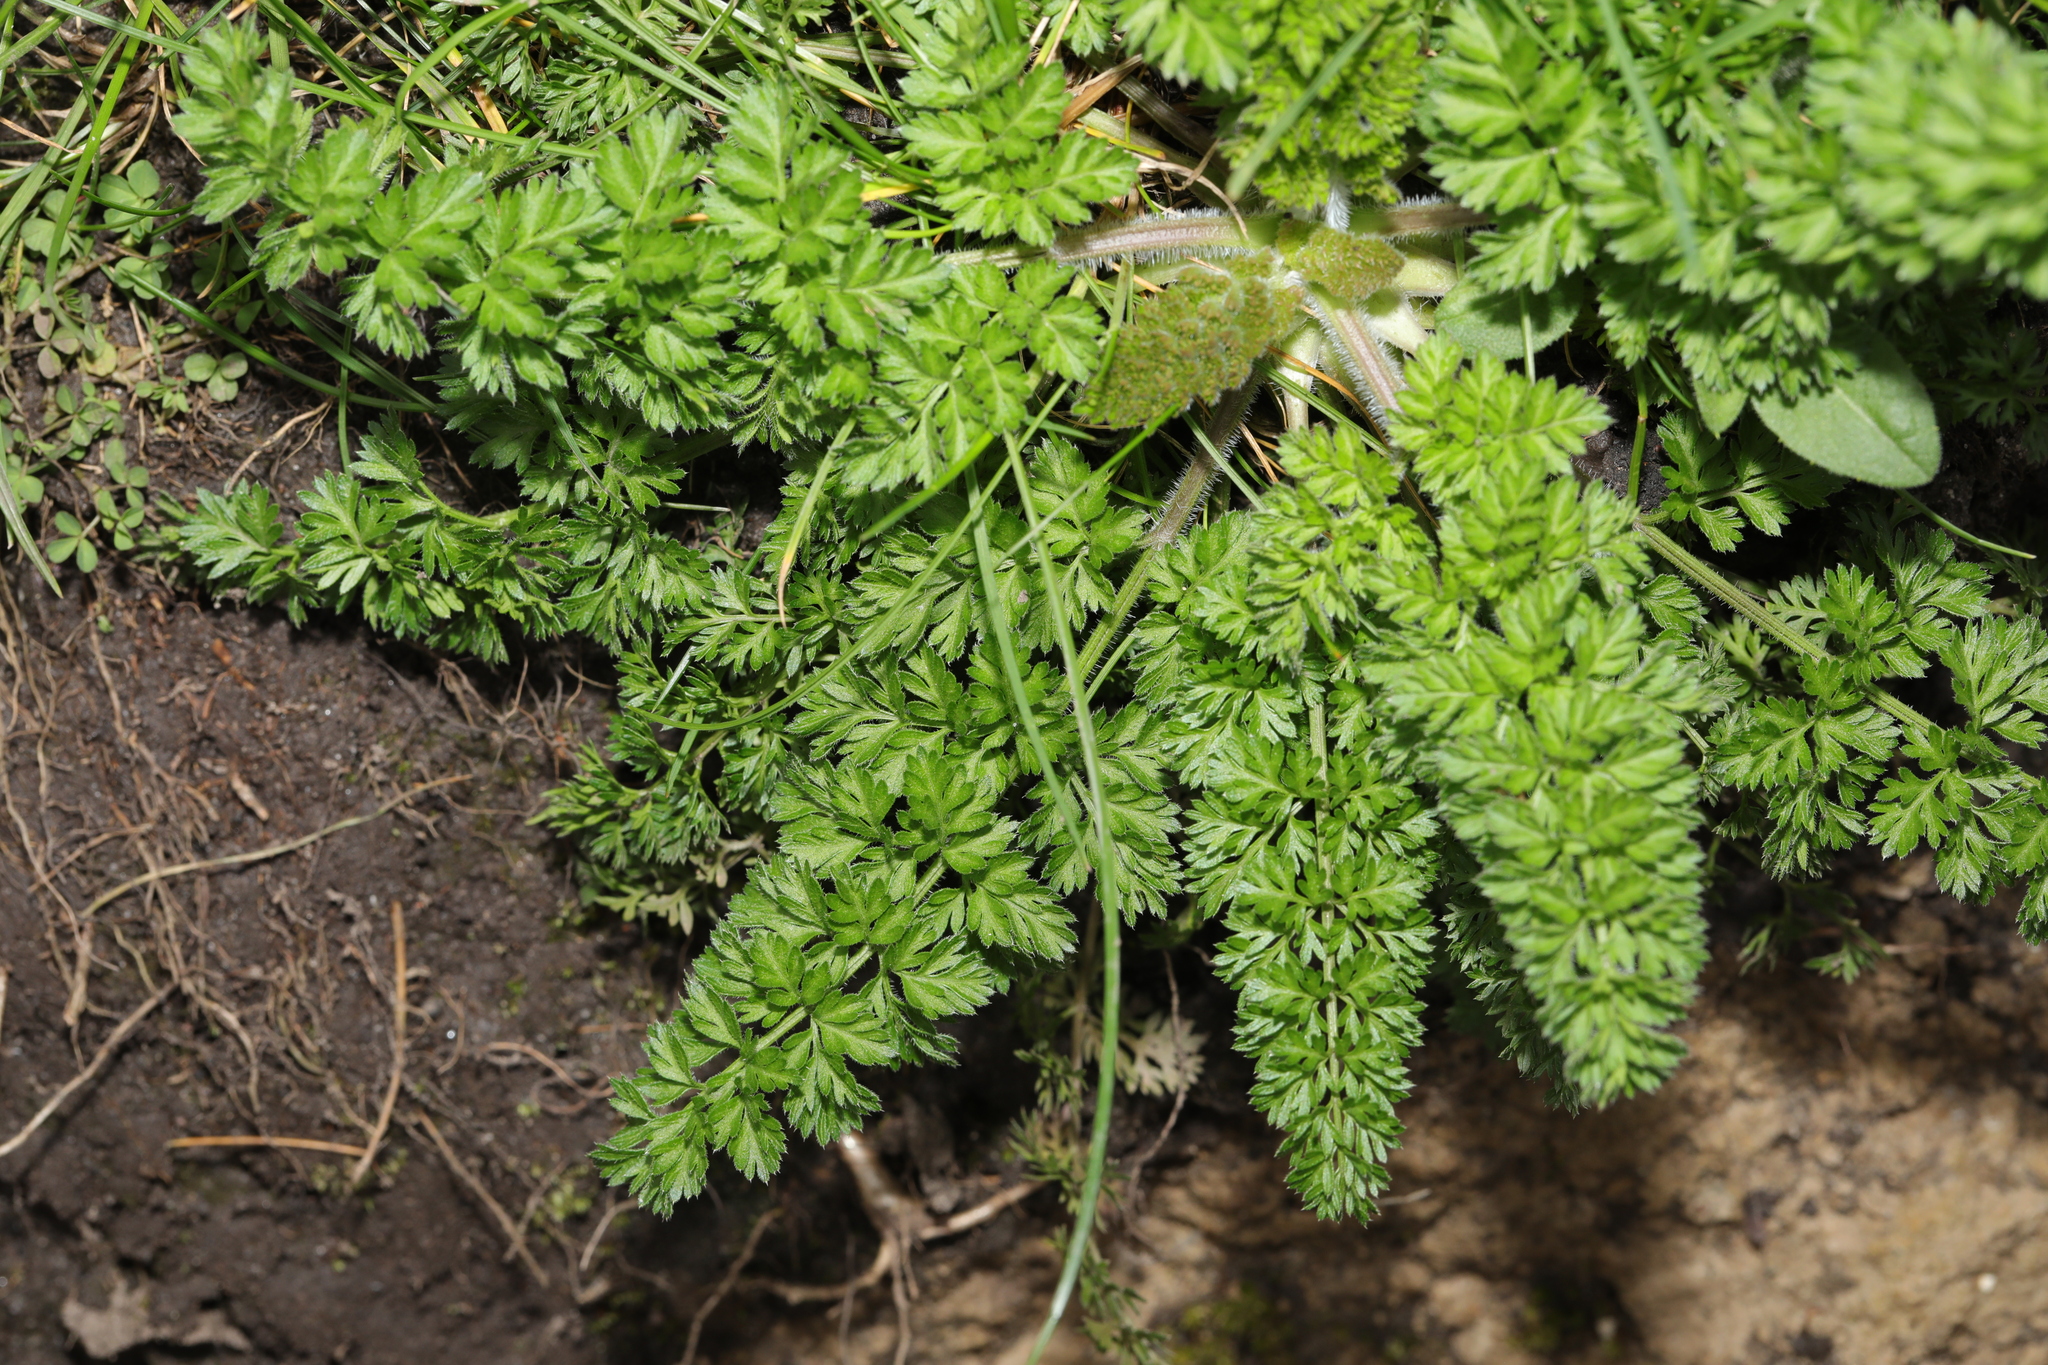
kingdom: Plantae
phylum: Tracheophyta
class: Magnoliopsida
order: Apiales
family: Apiaceae
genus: Daucus
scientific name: Daucus carota
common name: Wild carrot
